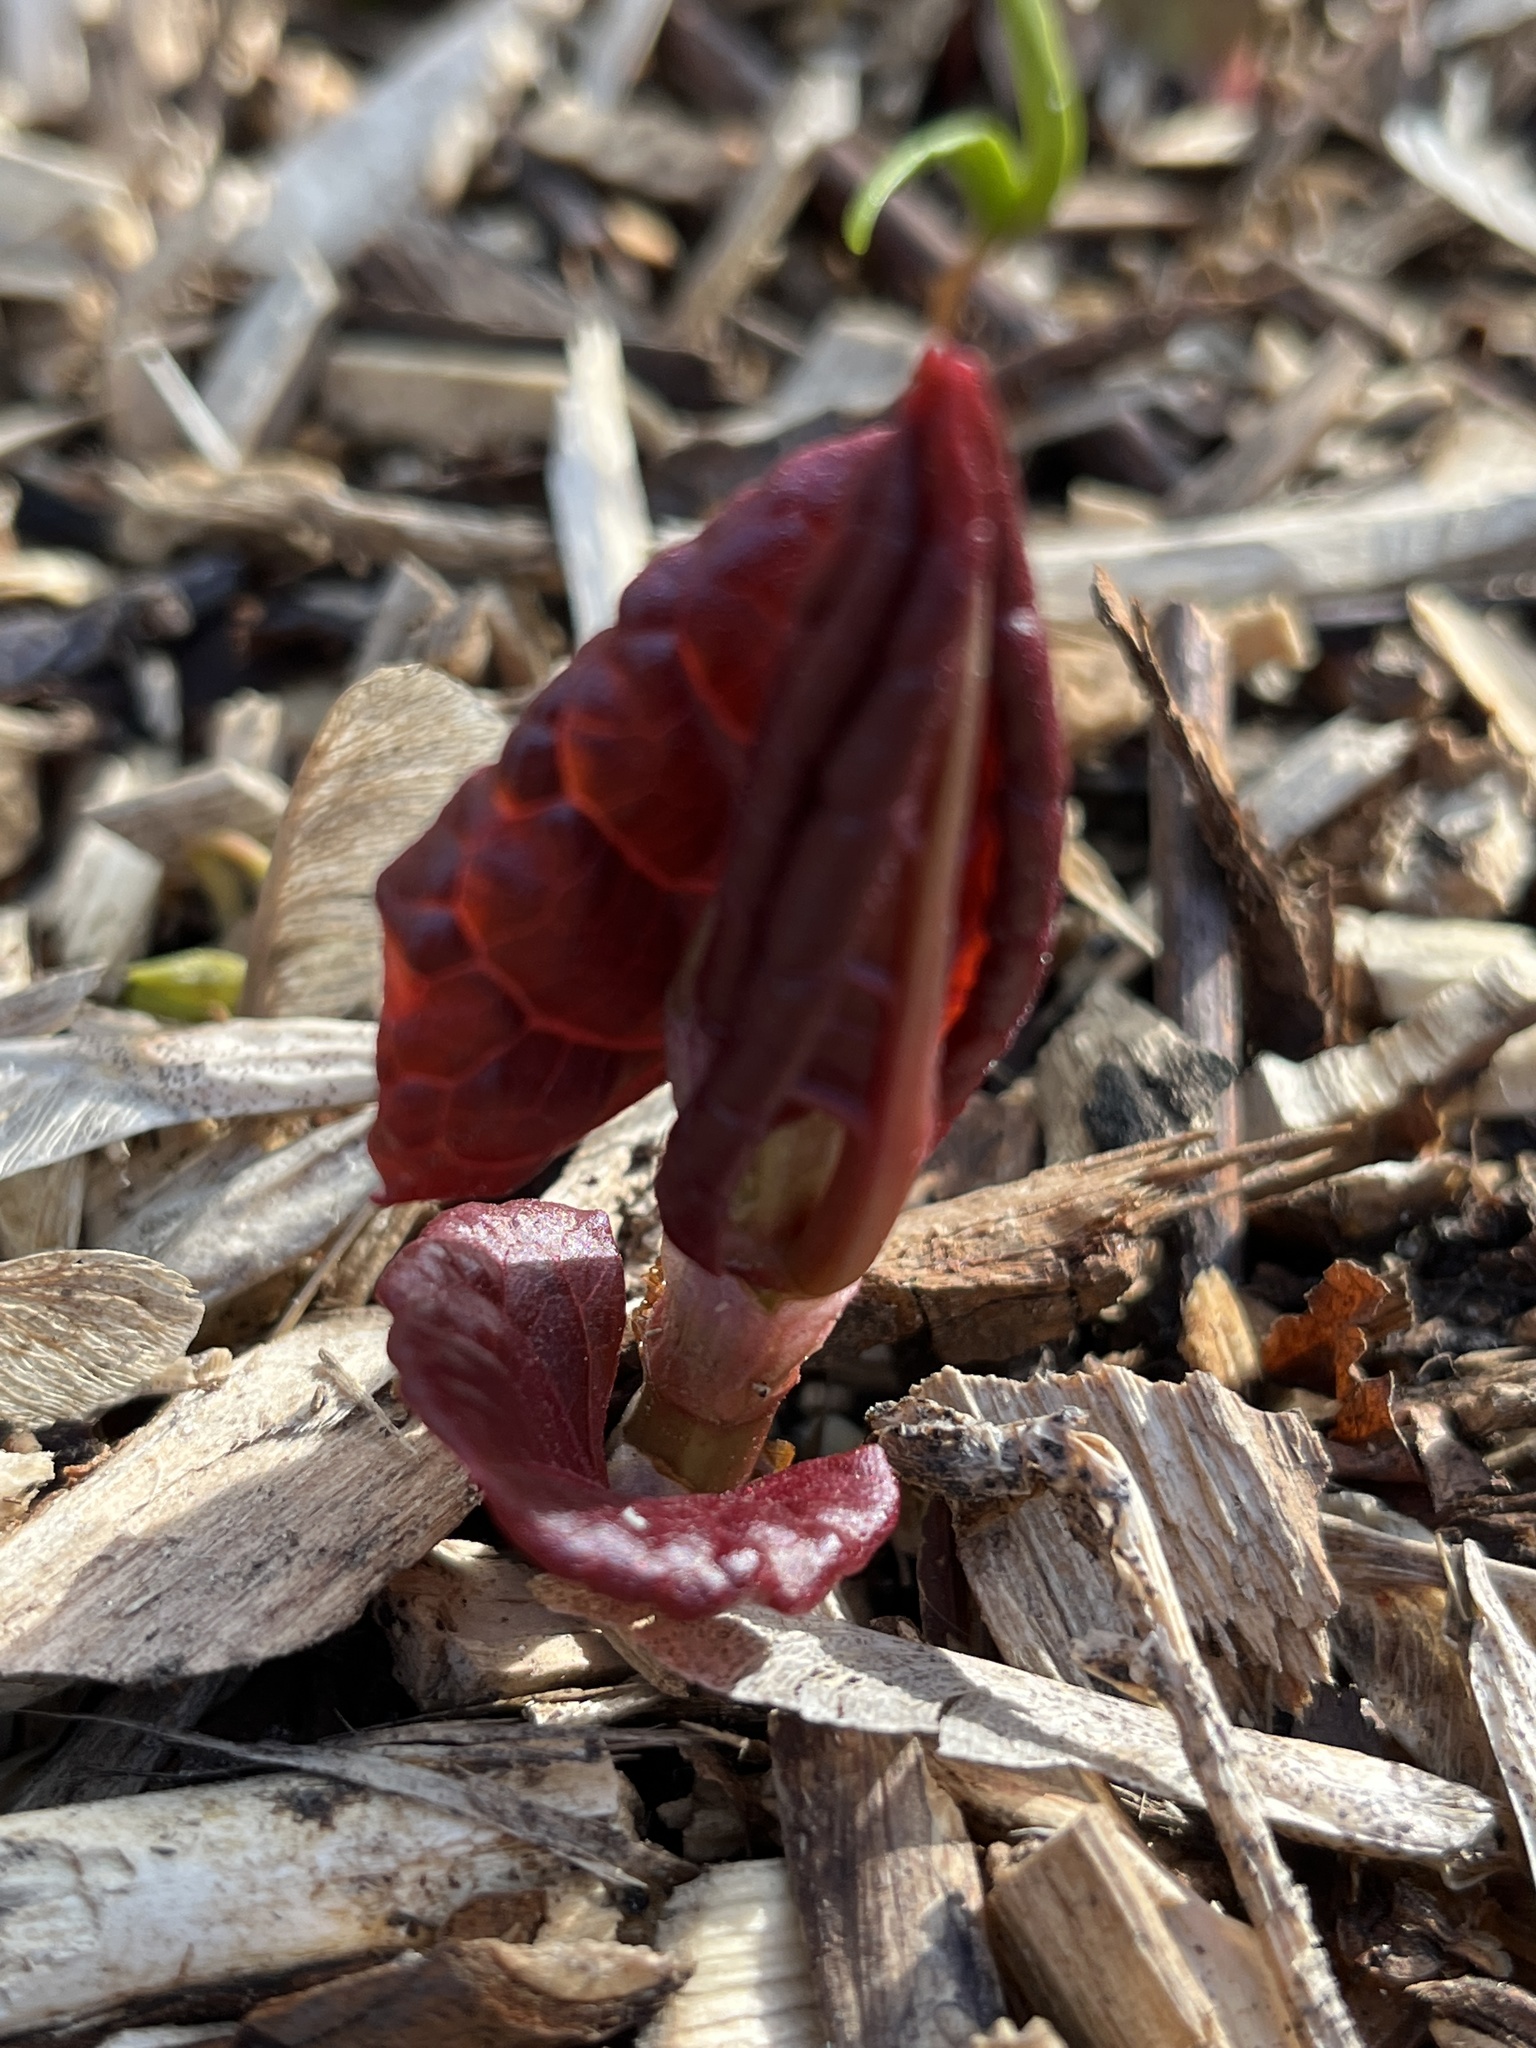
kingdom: Plantae
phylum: Tracheophyta
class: Magnoliopsida
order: Caryophyllales
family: Polygonaceae
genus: Reynoutria
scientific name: Reynoutria bohemica
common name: Bohemian knotweed
